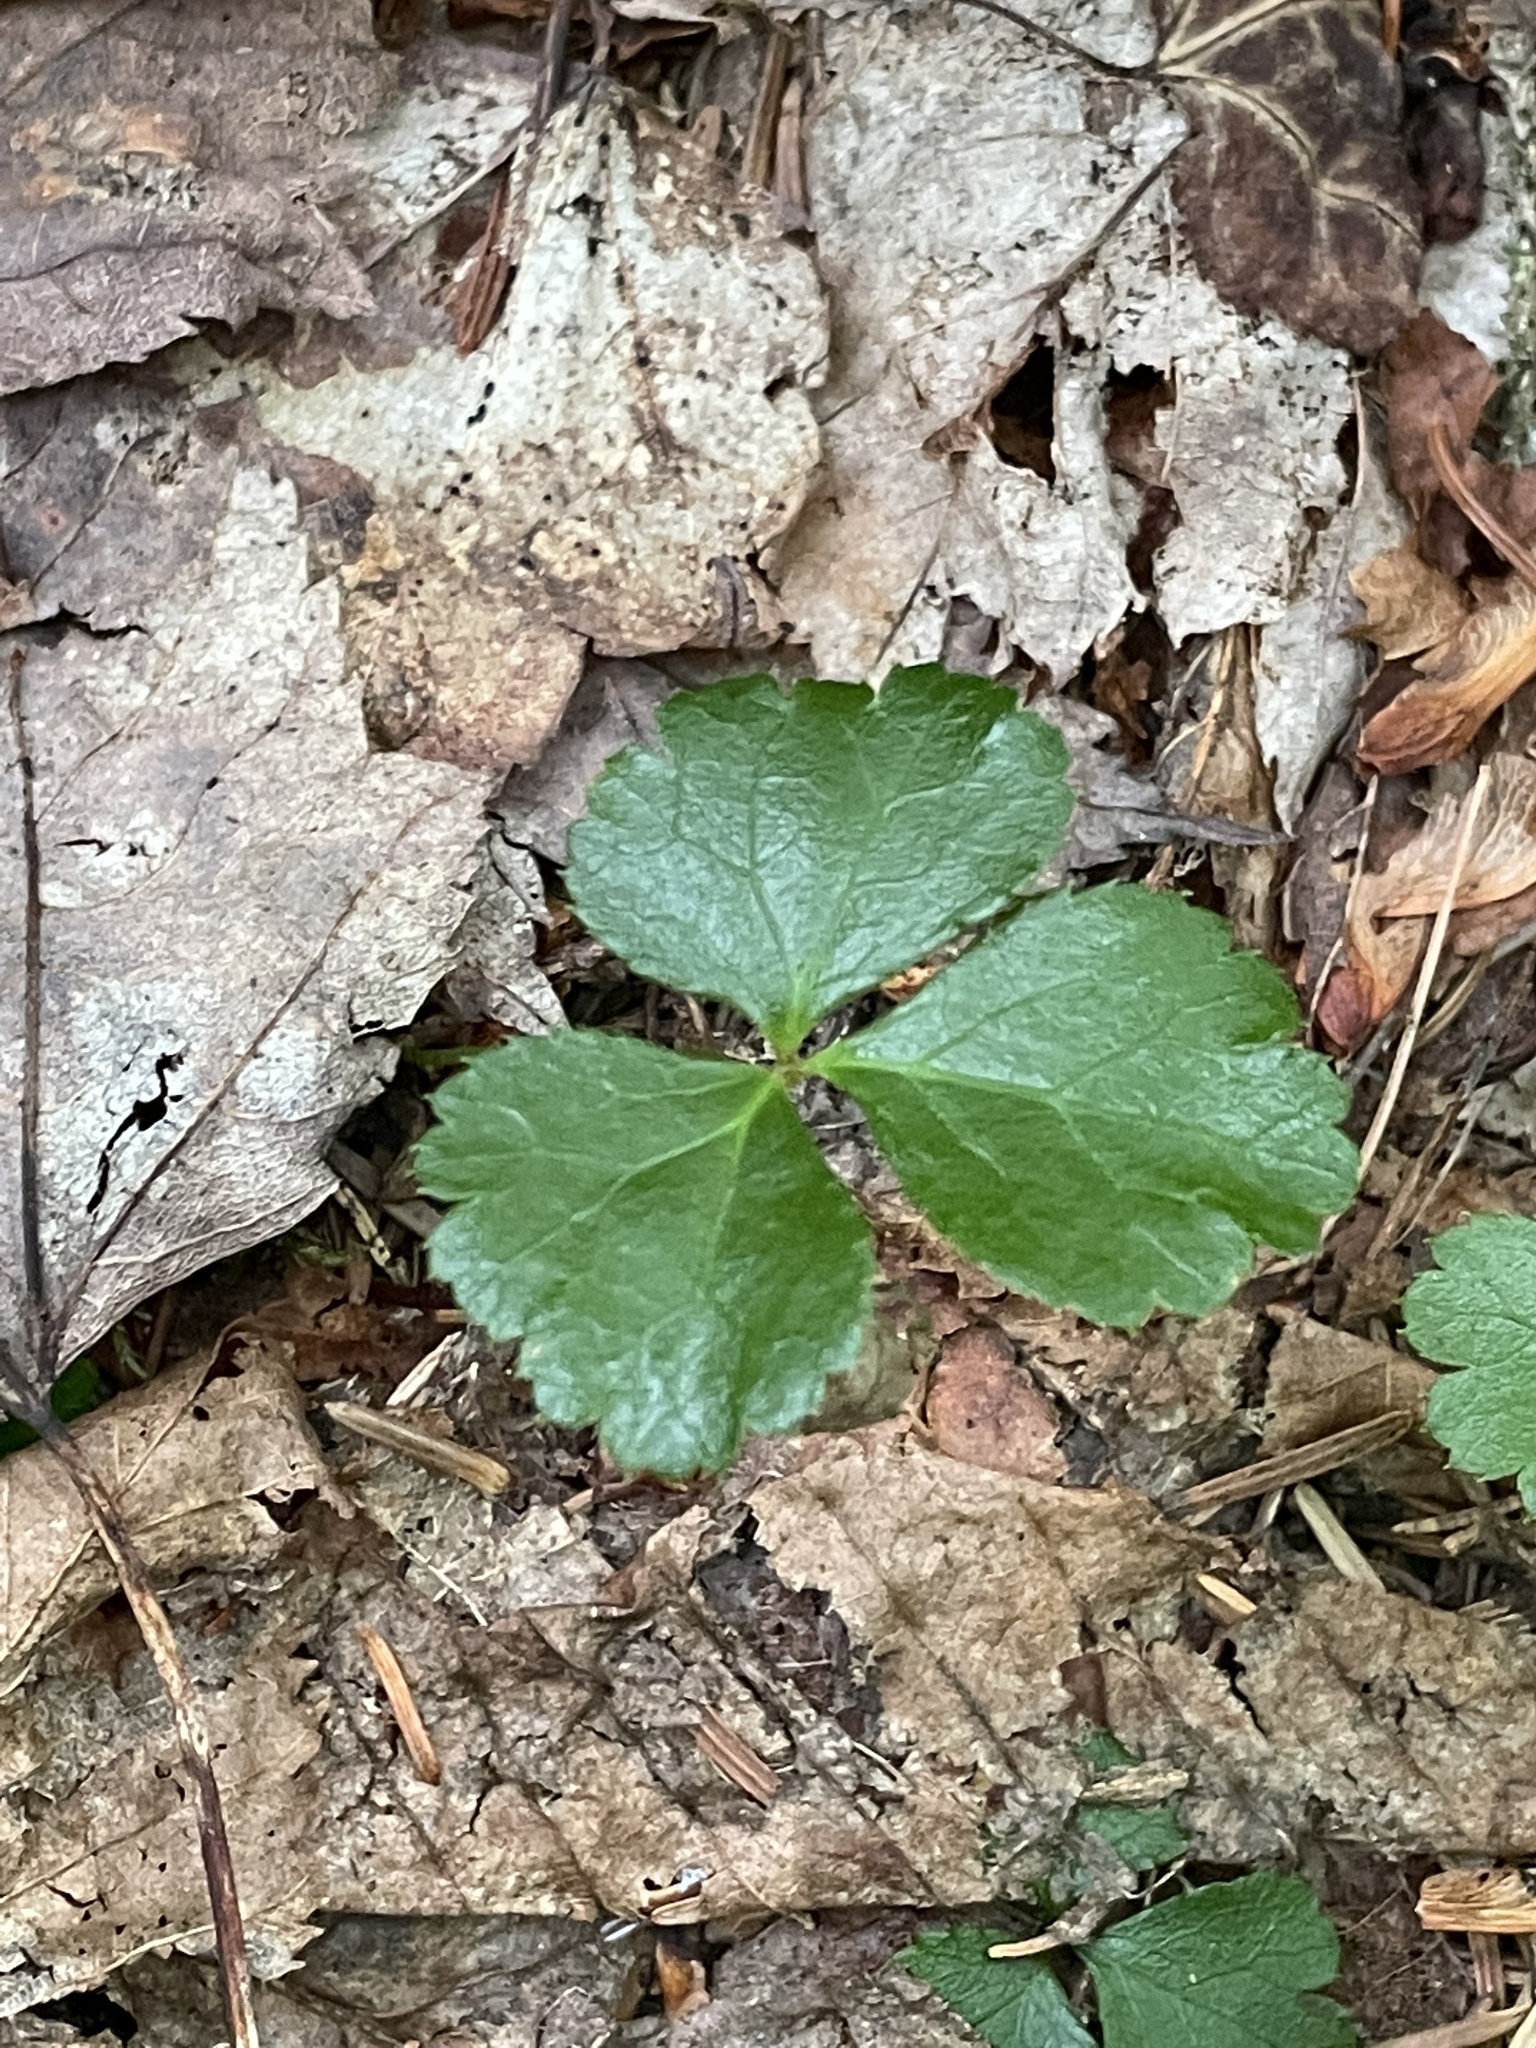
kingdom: Plantae
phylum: Tracheophyta
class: Magnoliopsida
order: Ranunculales
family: Ranunculaceae
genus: Coptis
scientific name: Coptis trifolia
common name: Canker-root
